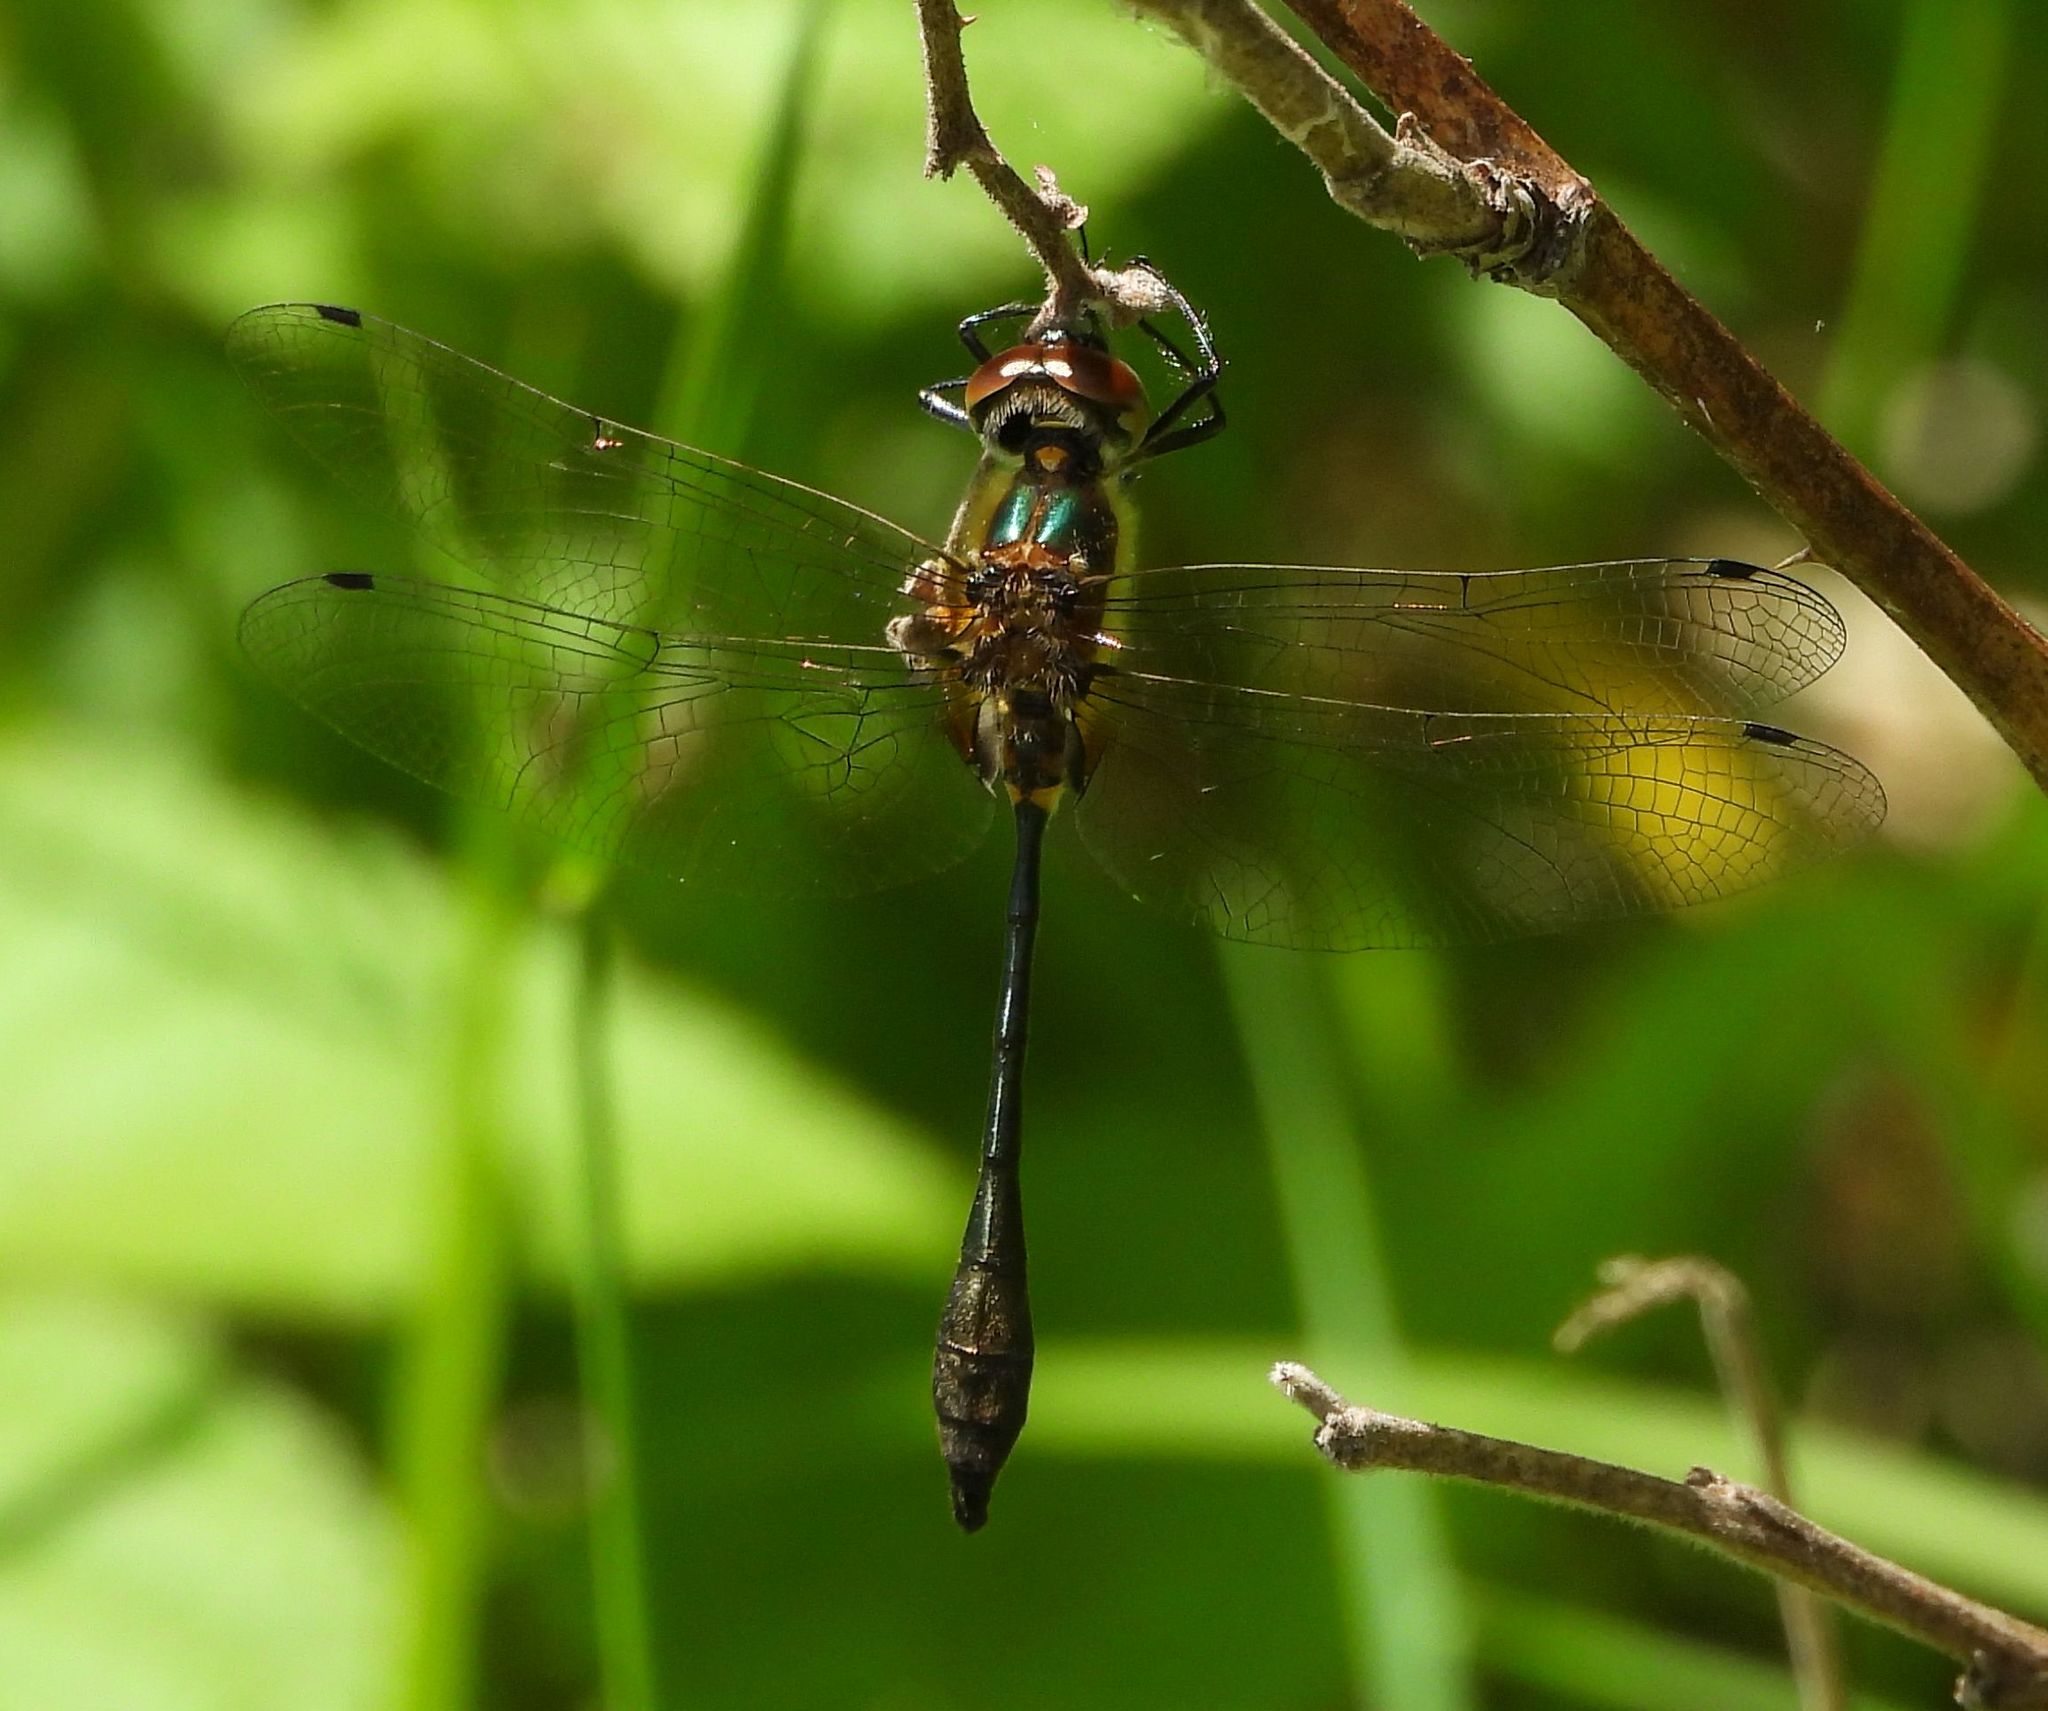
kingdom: Animalia
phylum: Arthropoda
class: Insecta
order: Odonata
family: Corduliidae
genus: Dorocordulia
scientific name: Dorocordulia libera
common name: Racket-tailed emerald
